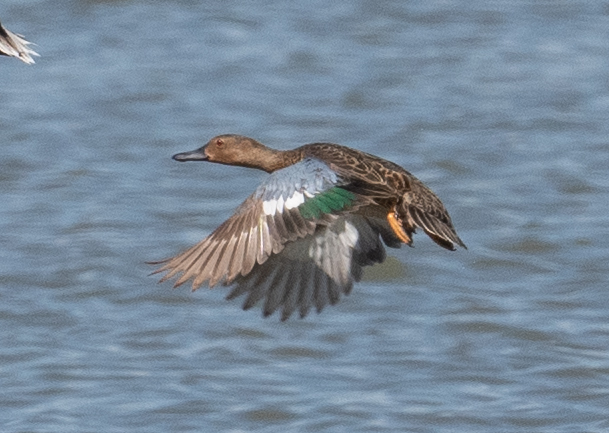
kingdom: Animalia
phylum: Chordata
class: Aves
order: Anseriformes
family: Anatidae
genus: Spatula
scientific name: Spatula cyanoptera
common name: Cinnamon teal
